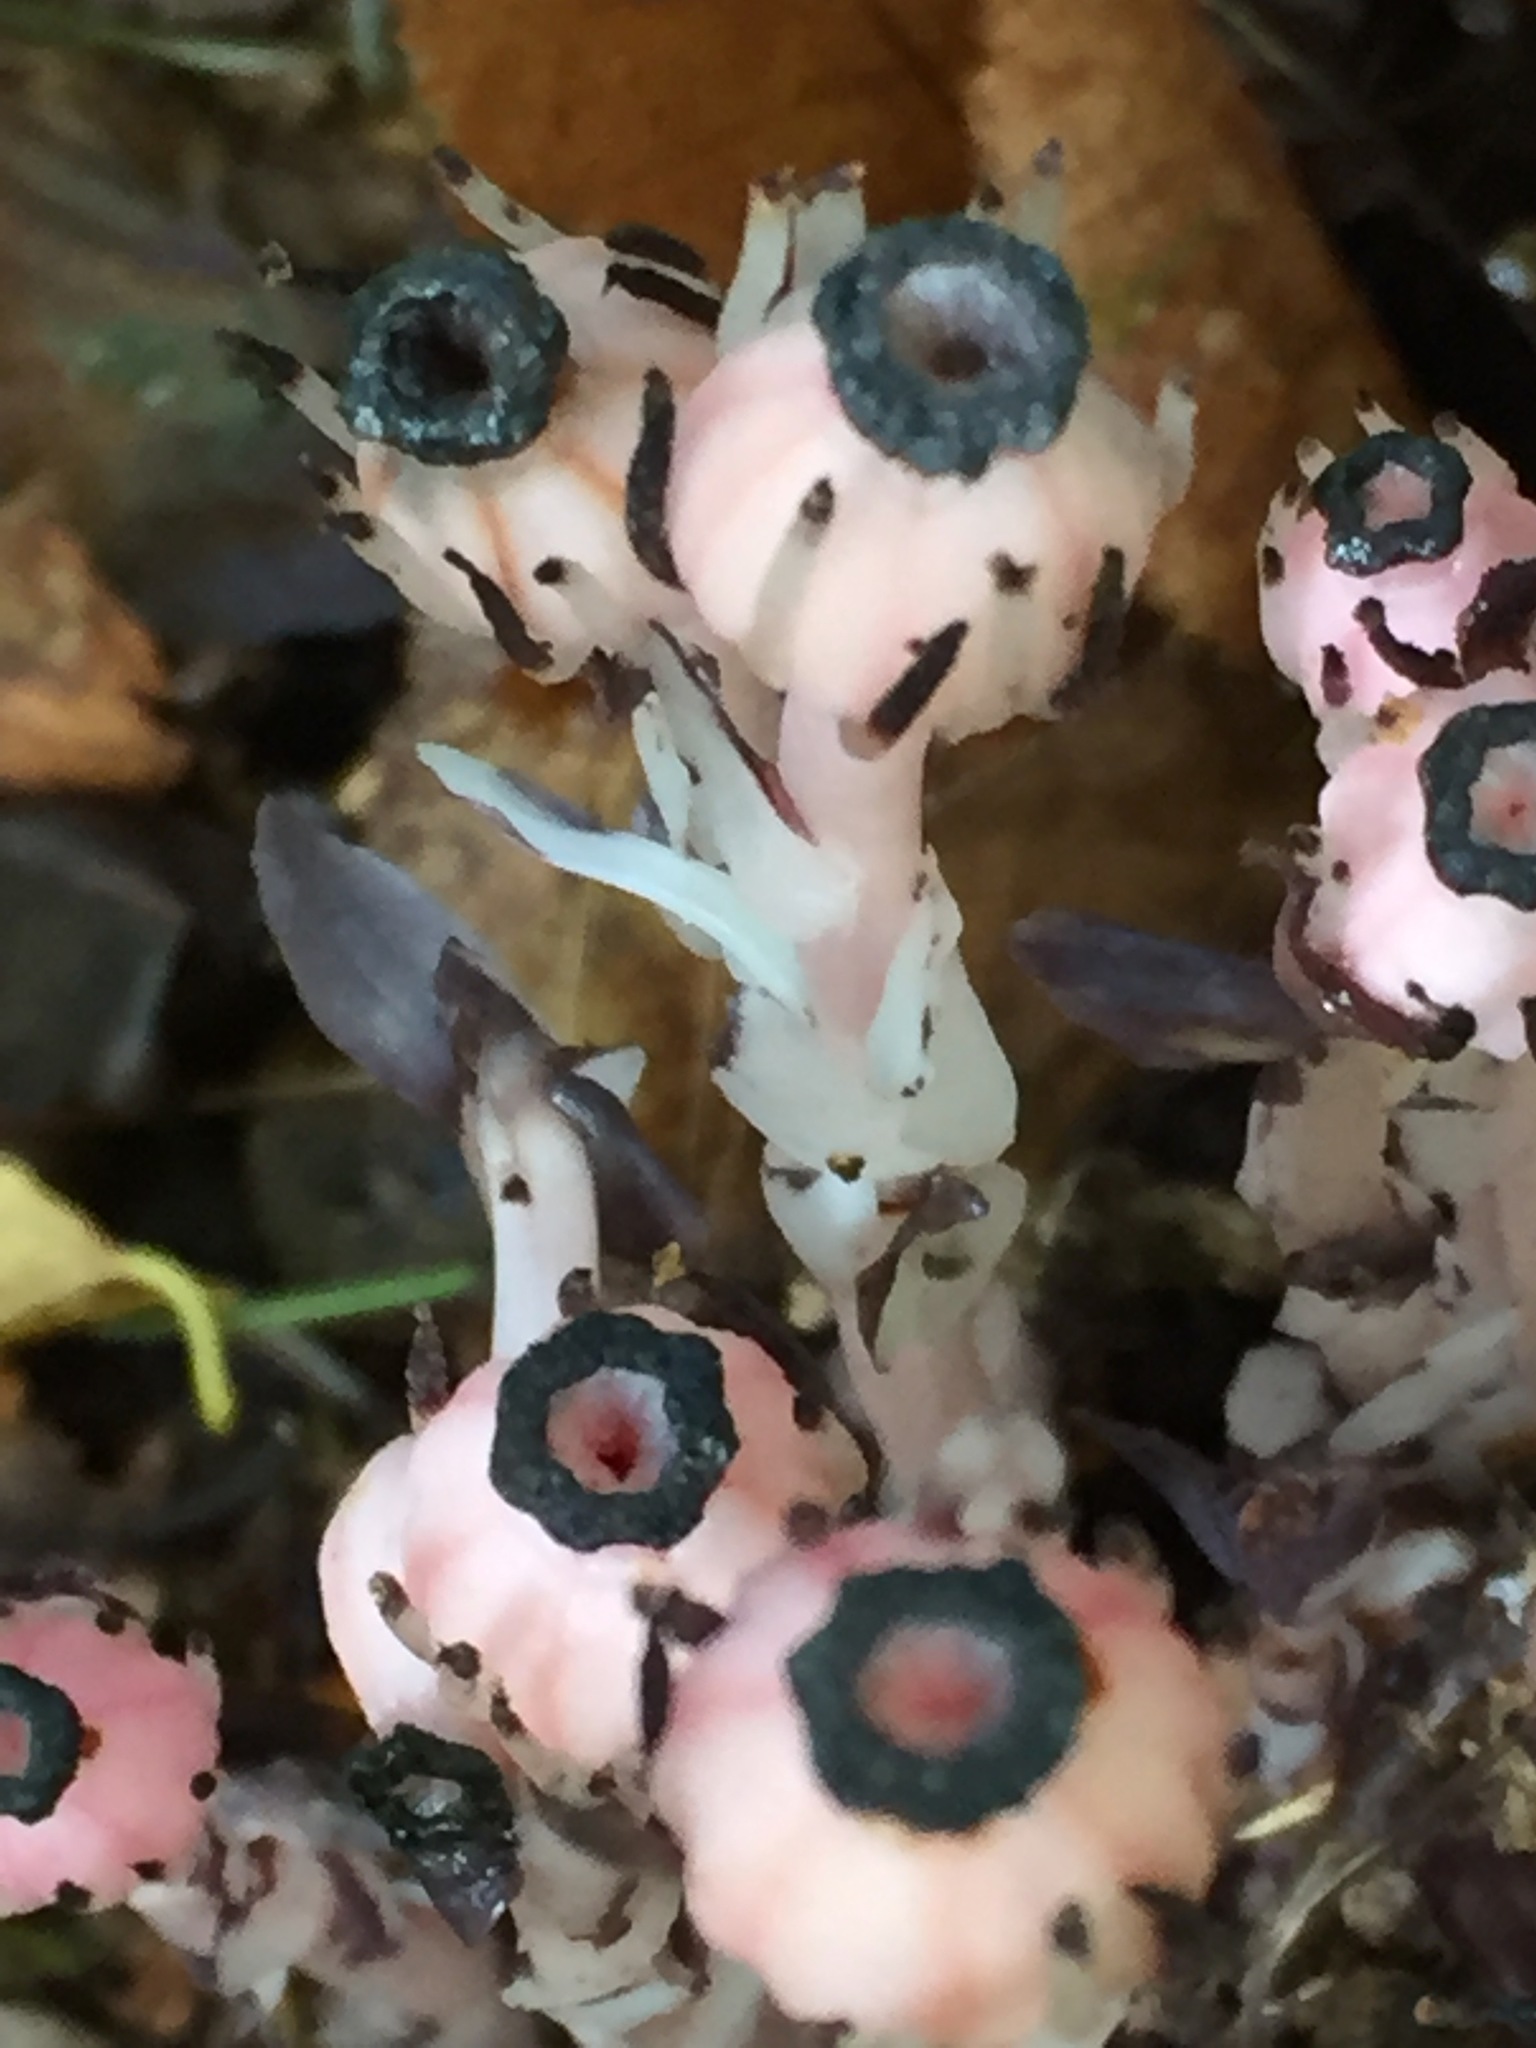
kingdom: Plantae
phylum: Tracheophyta
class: Magnoliopsida
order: Ericales
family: Ericaceae
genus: Monotropa
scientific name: Monotropa uniflora
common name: Convulsion root
